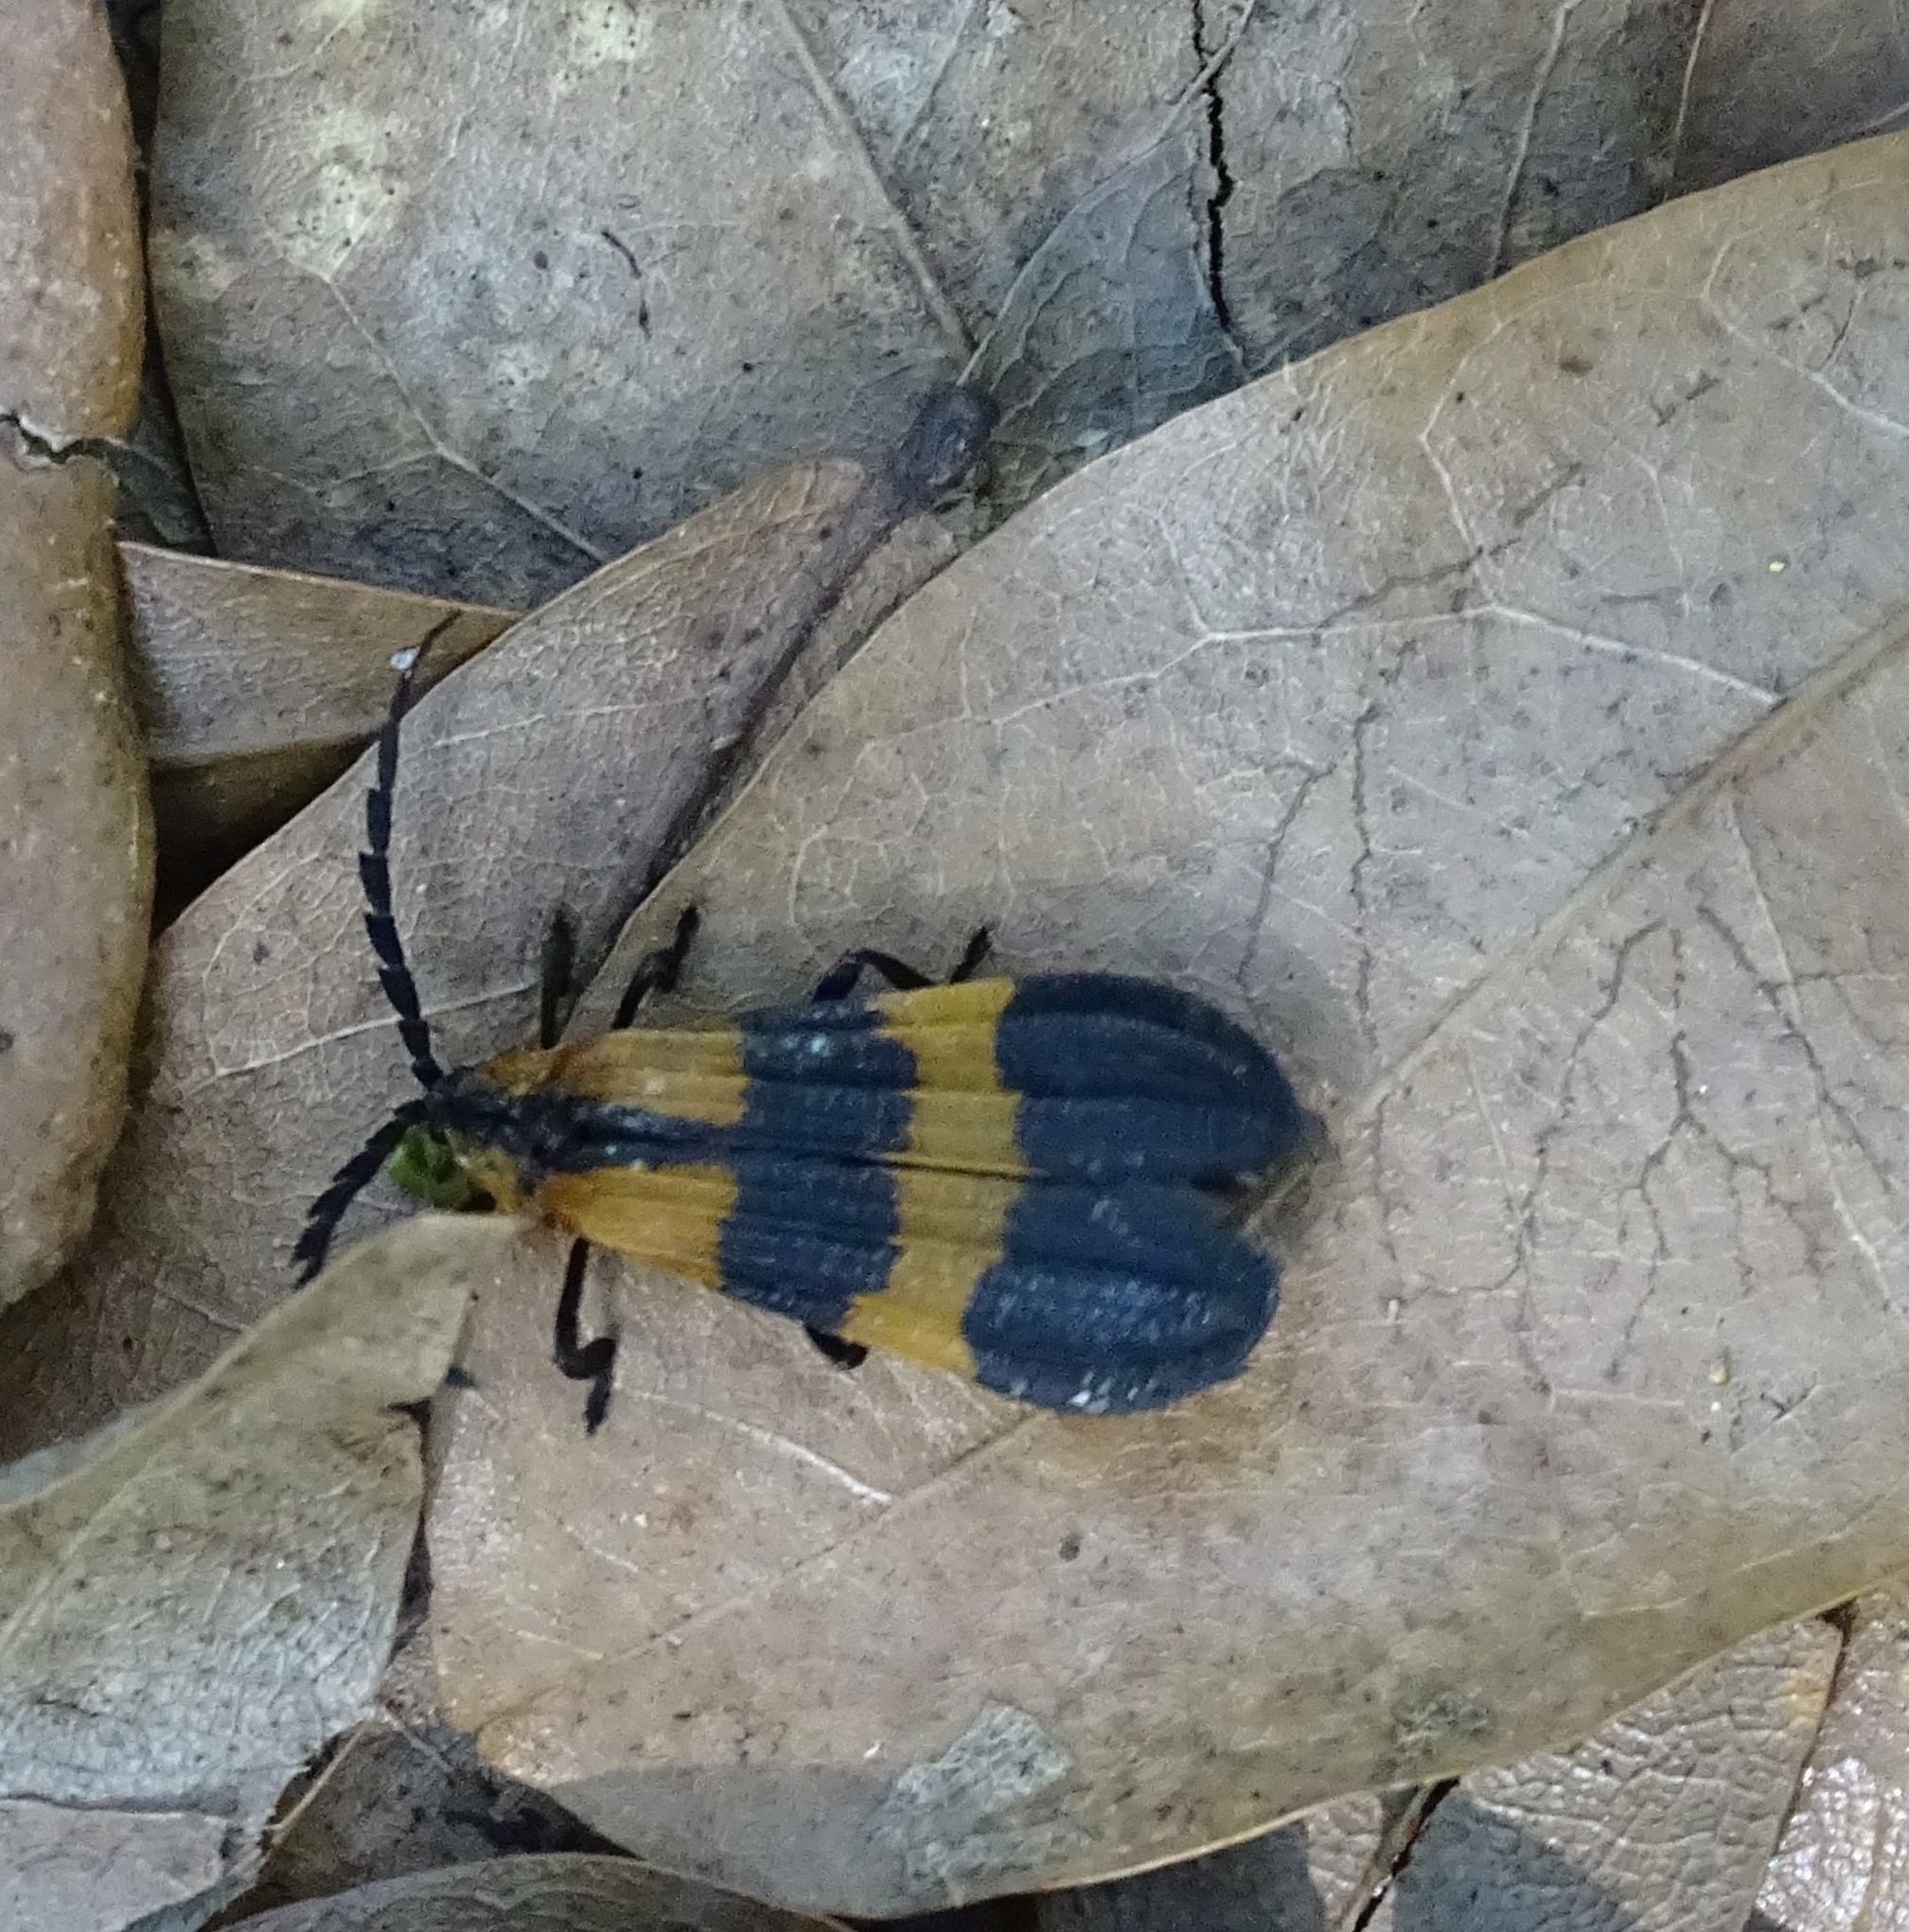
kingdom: Animalia
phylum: Arthropoda
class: Insecta
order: Coleoptera
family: Lycidae
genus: Calopteron
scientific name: Calopteron discrepans
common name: Banded net-winged beetle
